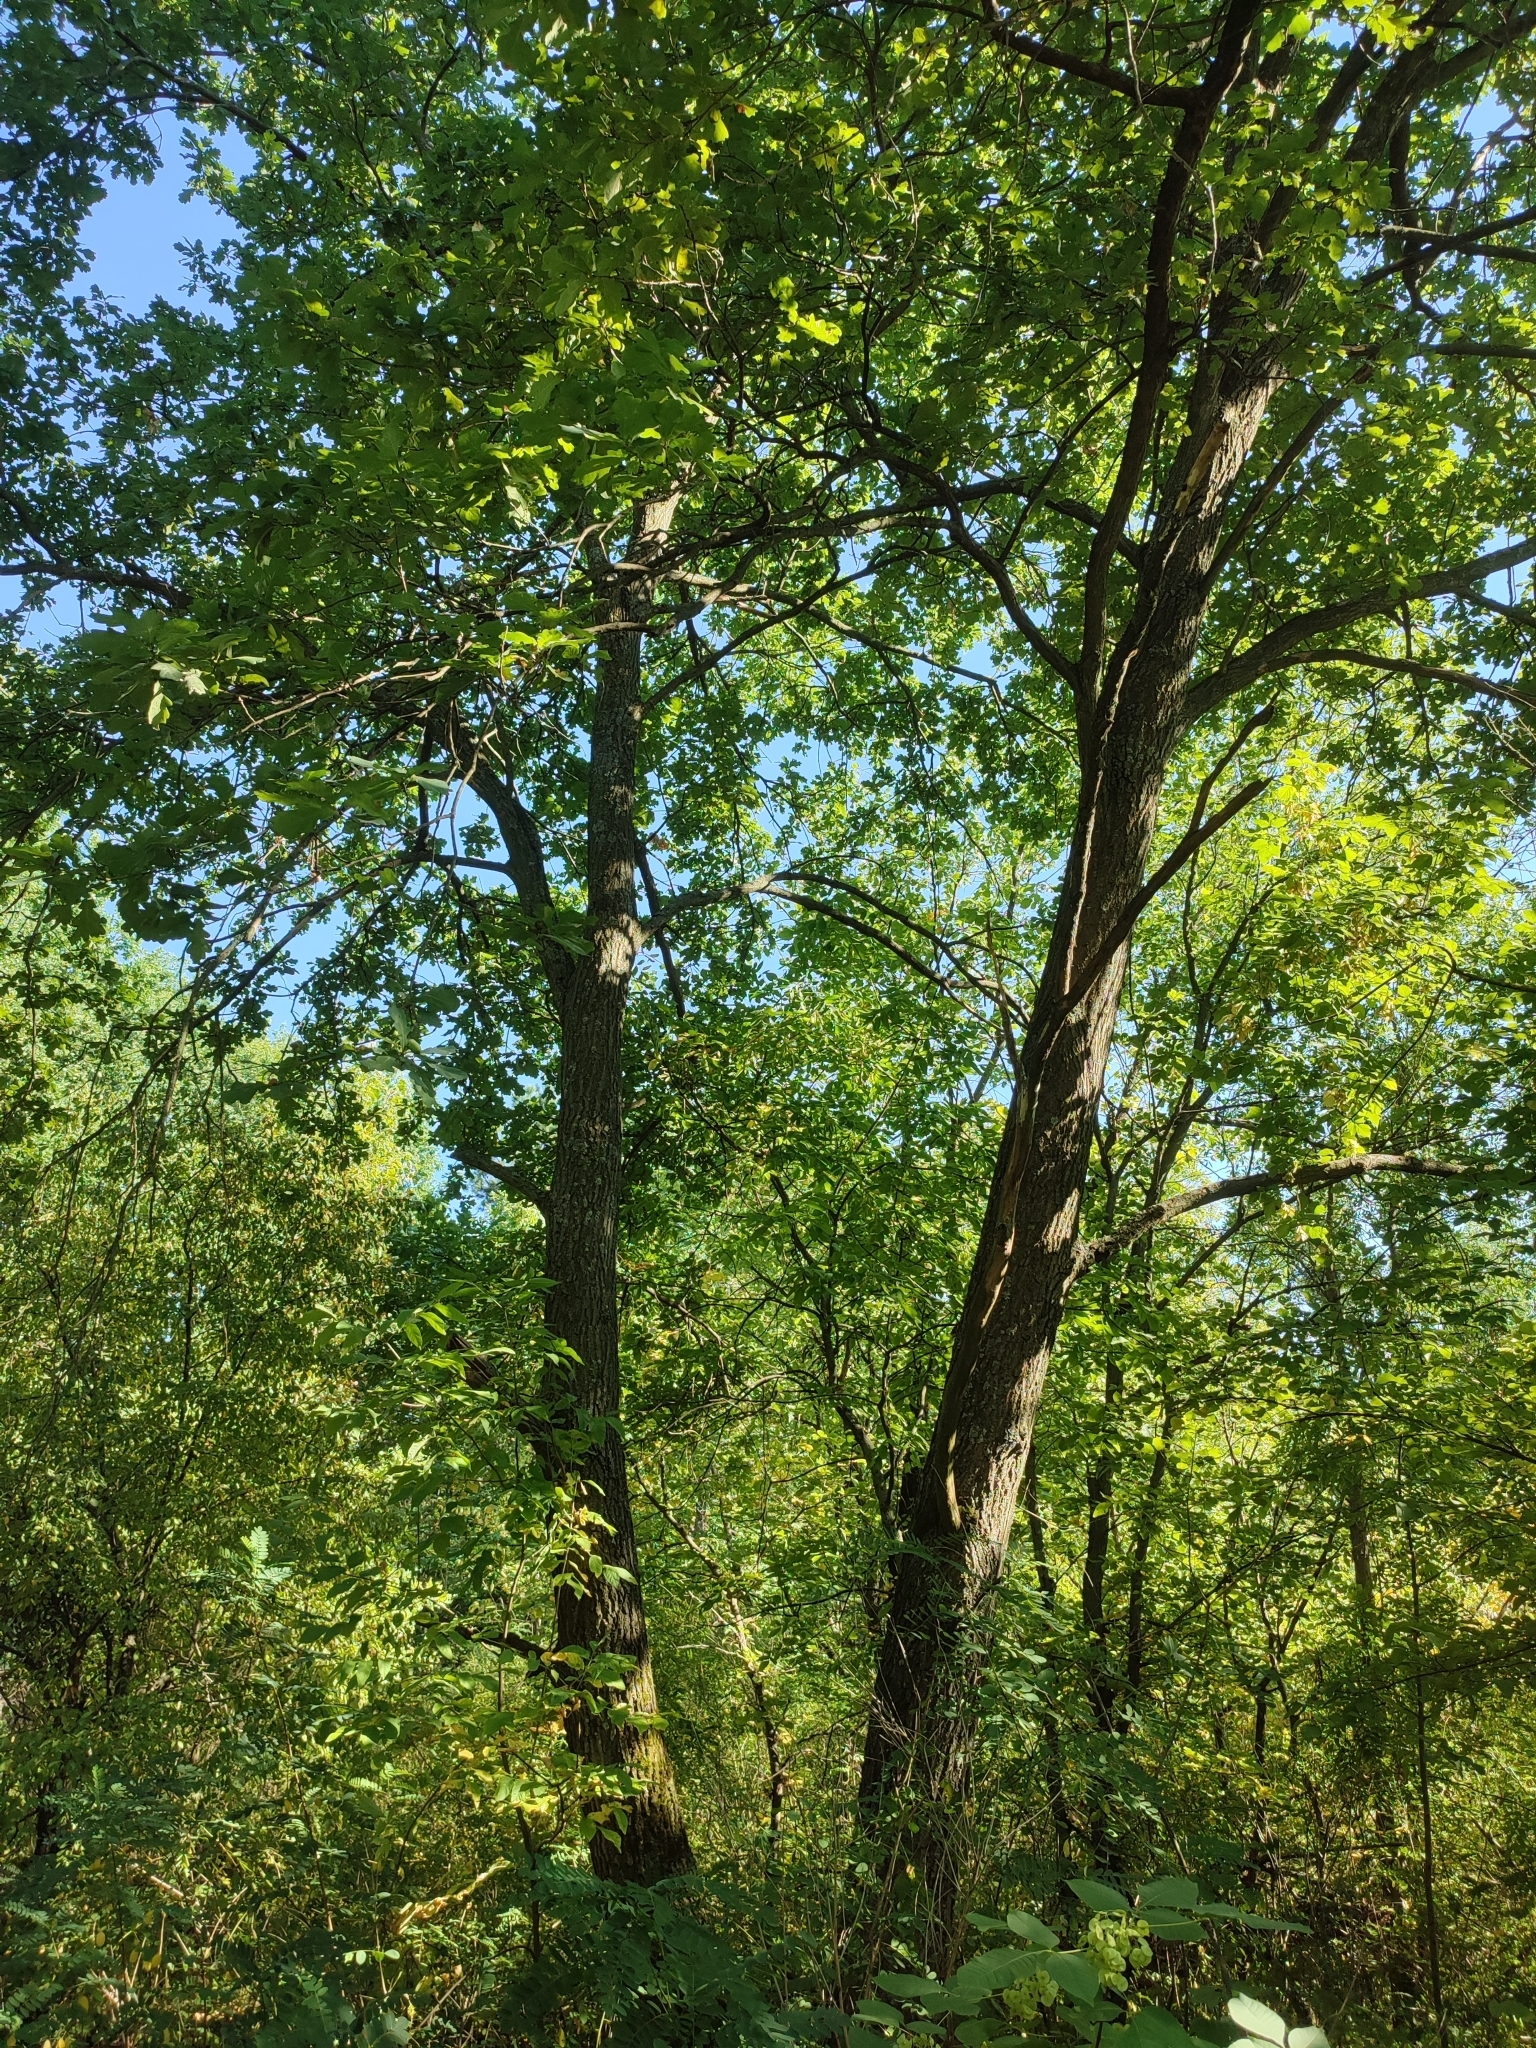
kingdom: Plantae
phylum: Tracheophyta
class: Magnoliopsida
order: Fagales
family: Fagaceae
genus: Quercus
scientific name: Quercus robur
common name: Pedunculate oak
